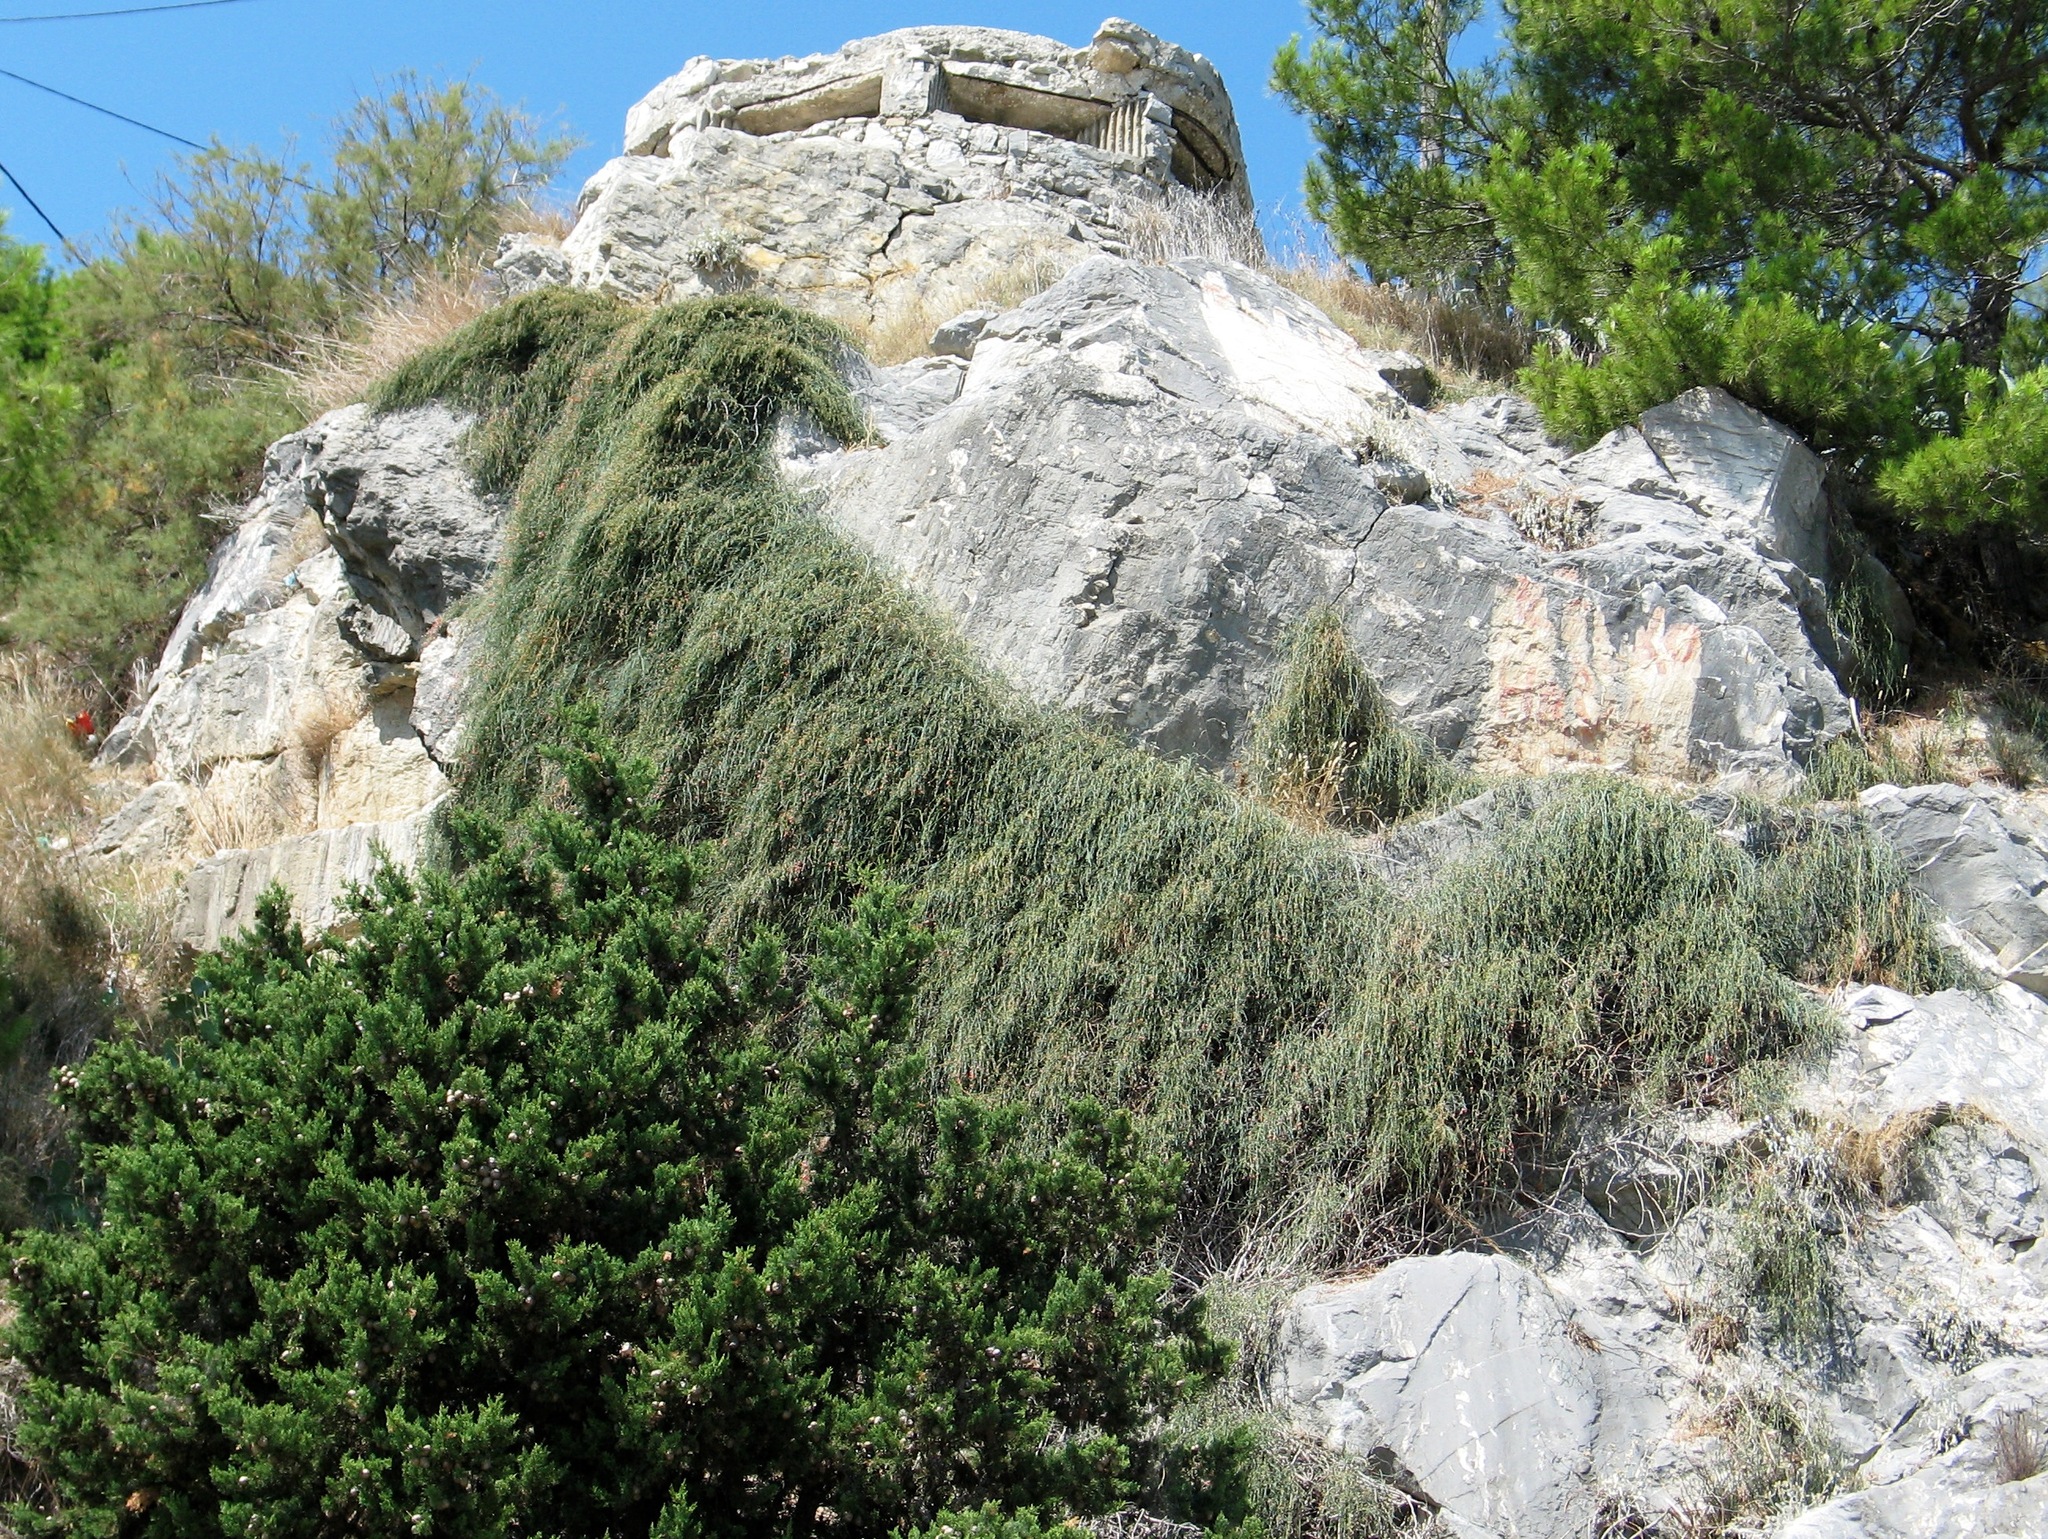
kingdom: Plantae
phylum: Tracheophyta
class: Gnetopsida
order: Ephedrales
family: Ephedraceae
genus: Ephedra
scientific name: Ephedra foeminea
